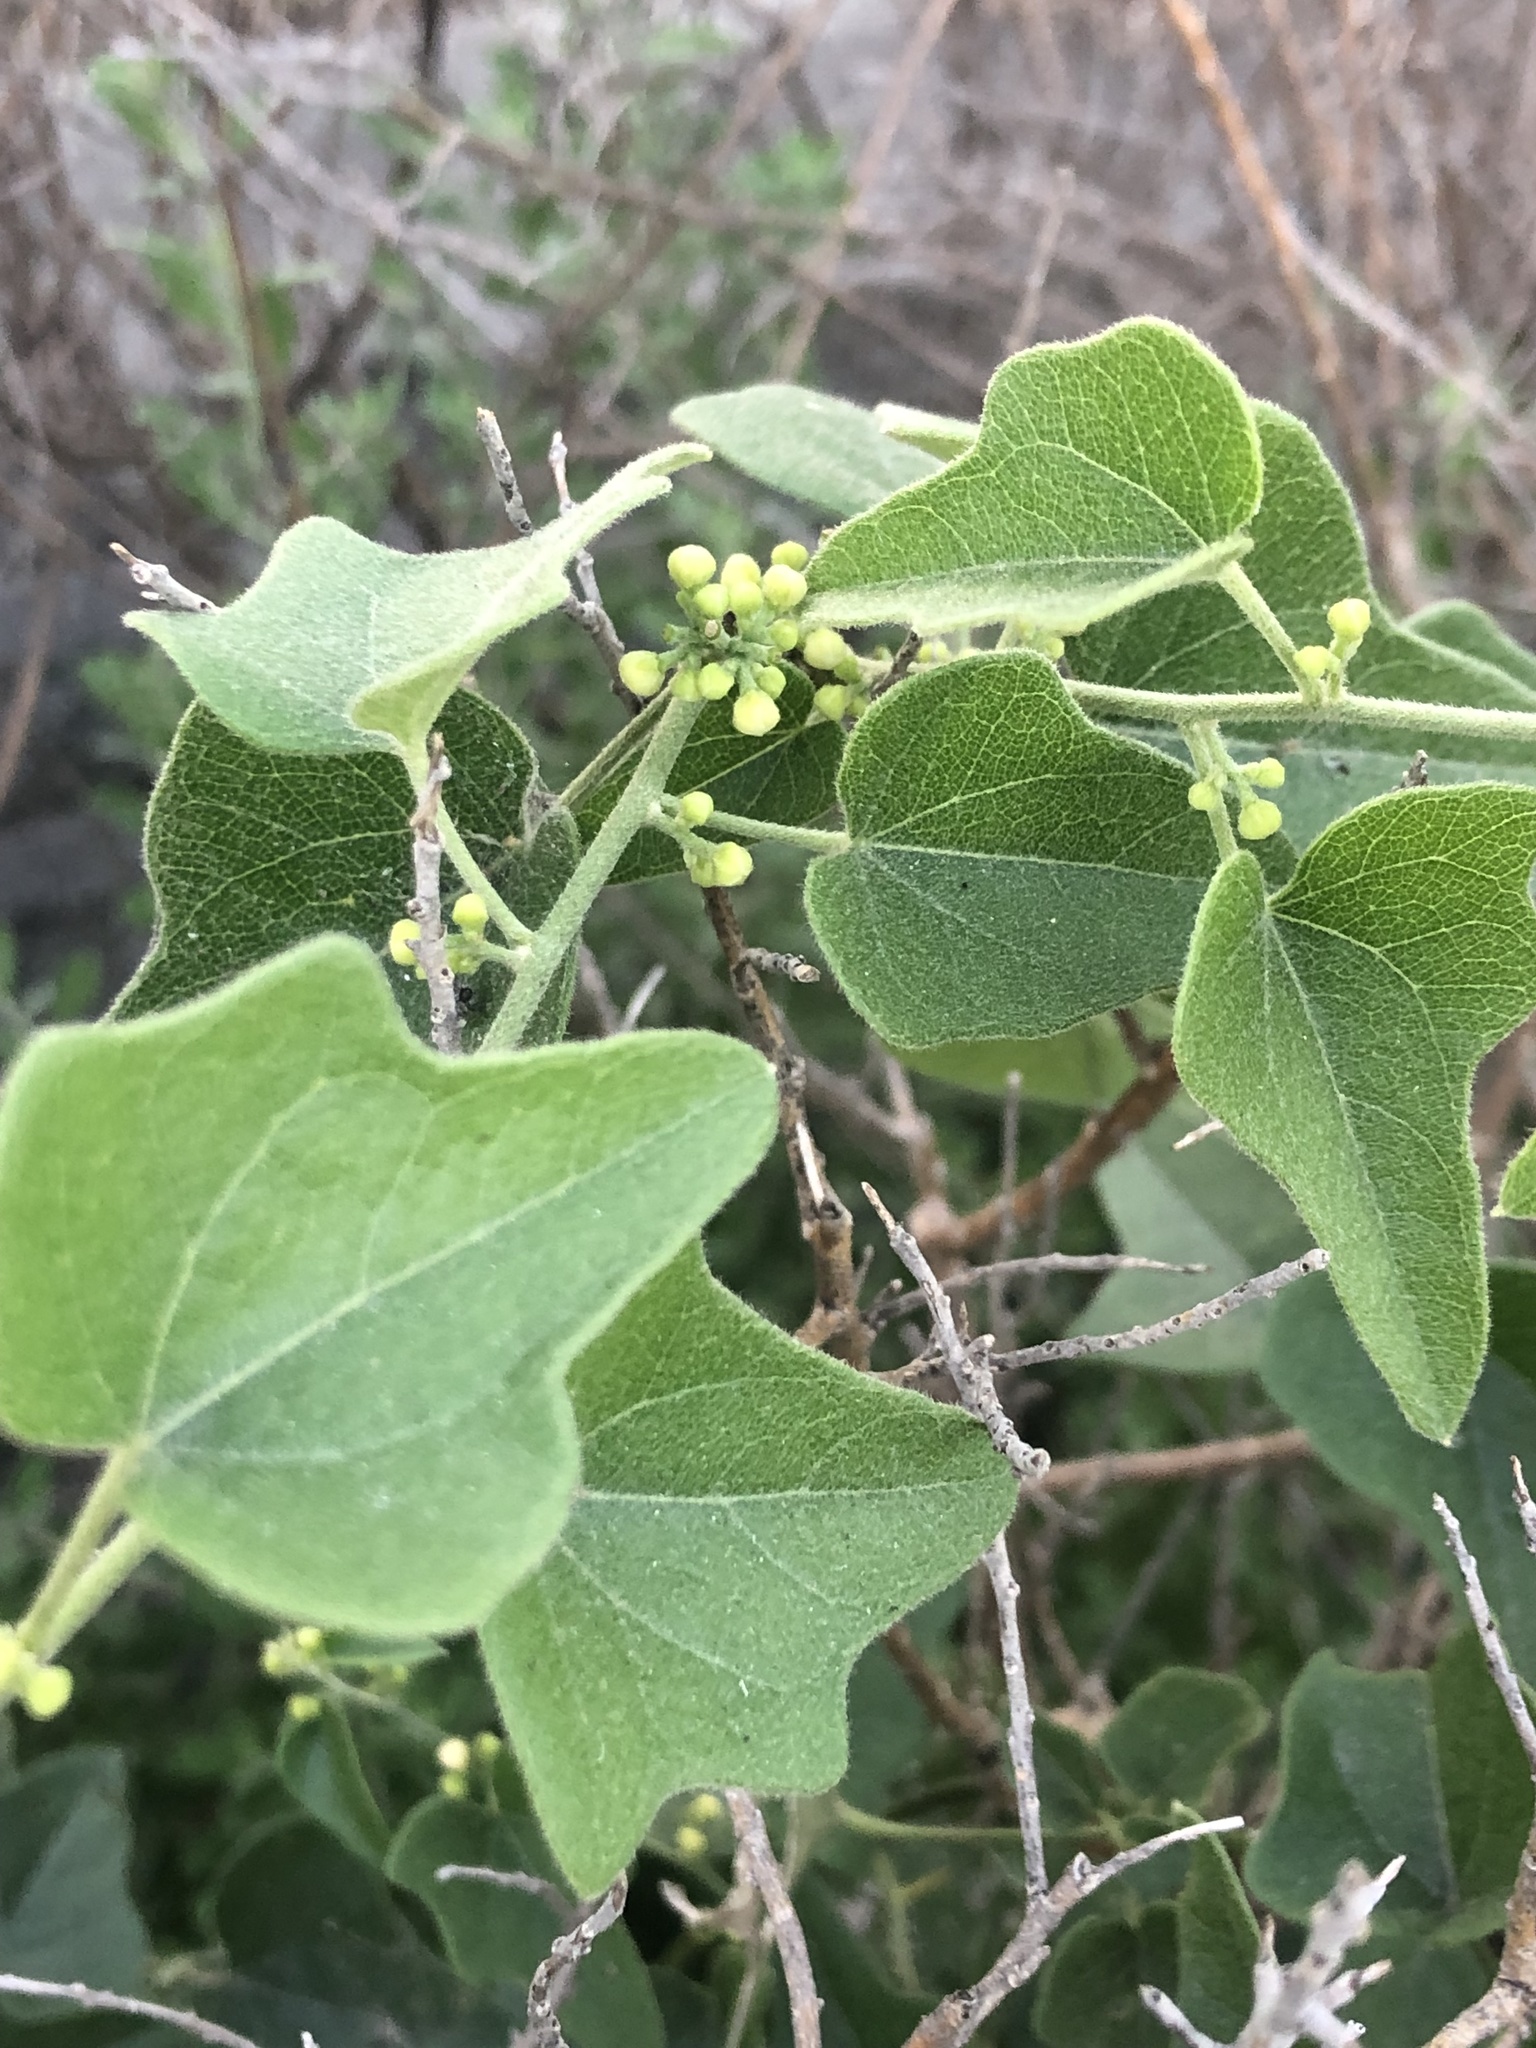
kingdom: Plantae
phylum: Tracheophyta
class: Magnoliopsida
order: Ranunculales
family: Menispermaceae
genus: Cocculus
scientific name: Cocculus carolinus
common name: Carolina moonseed
